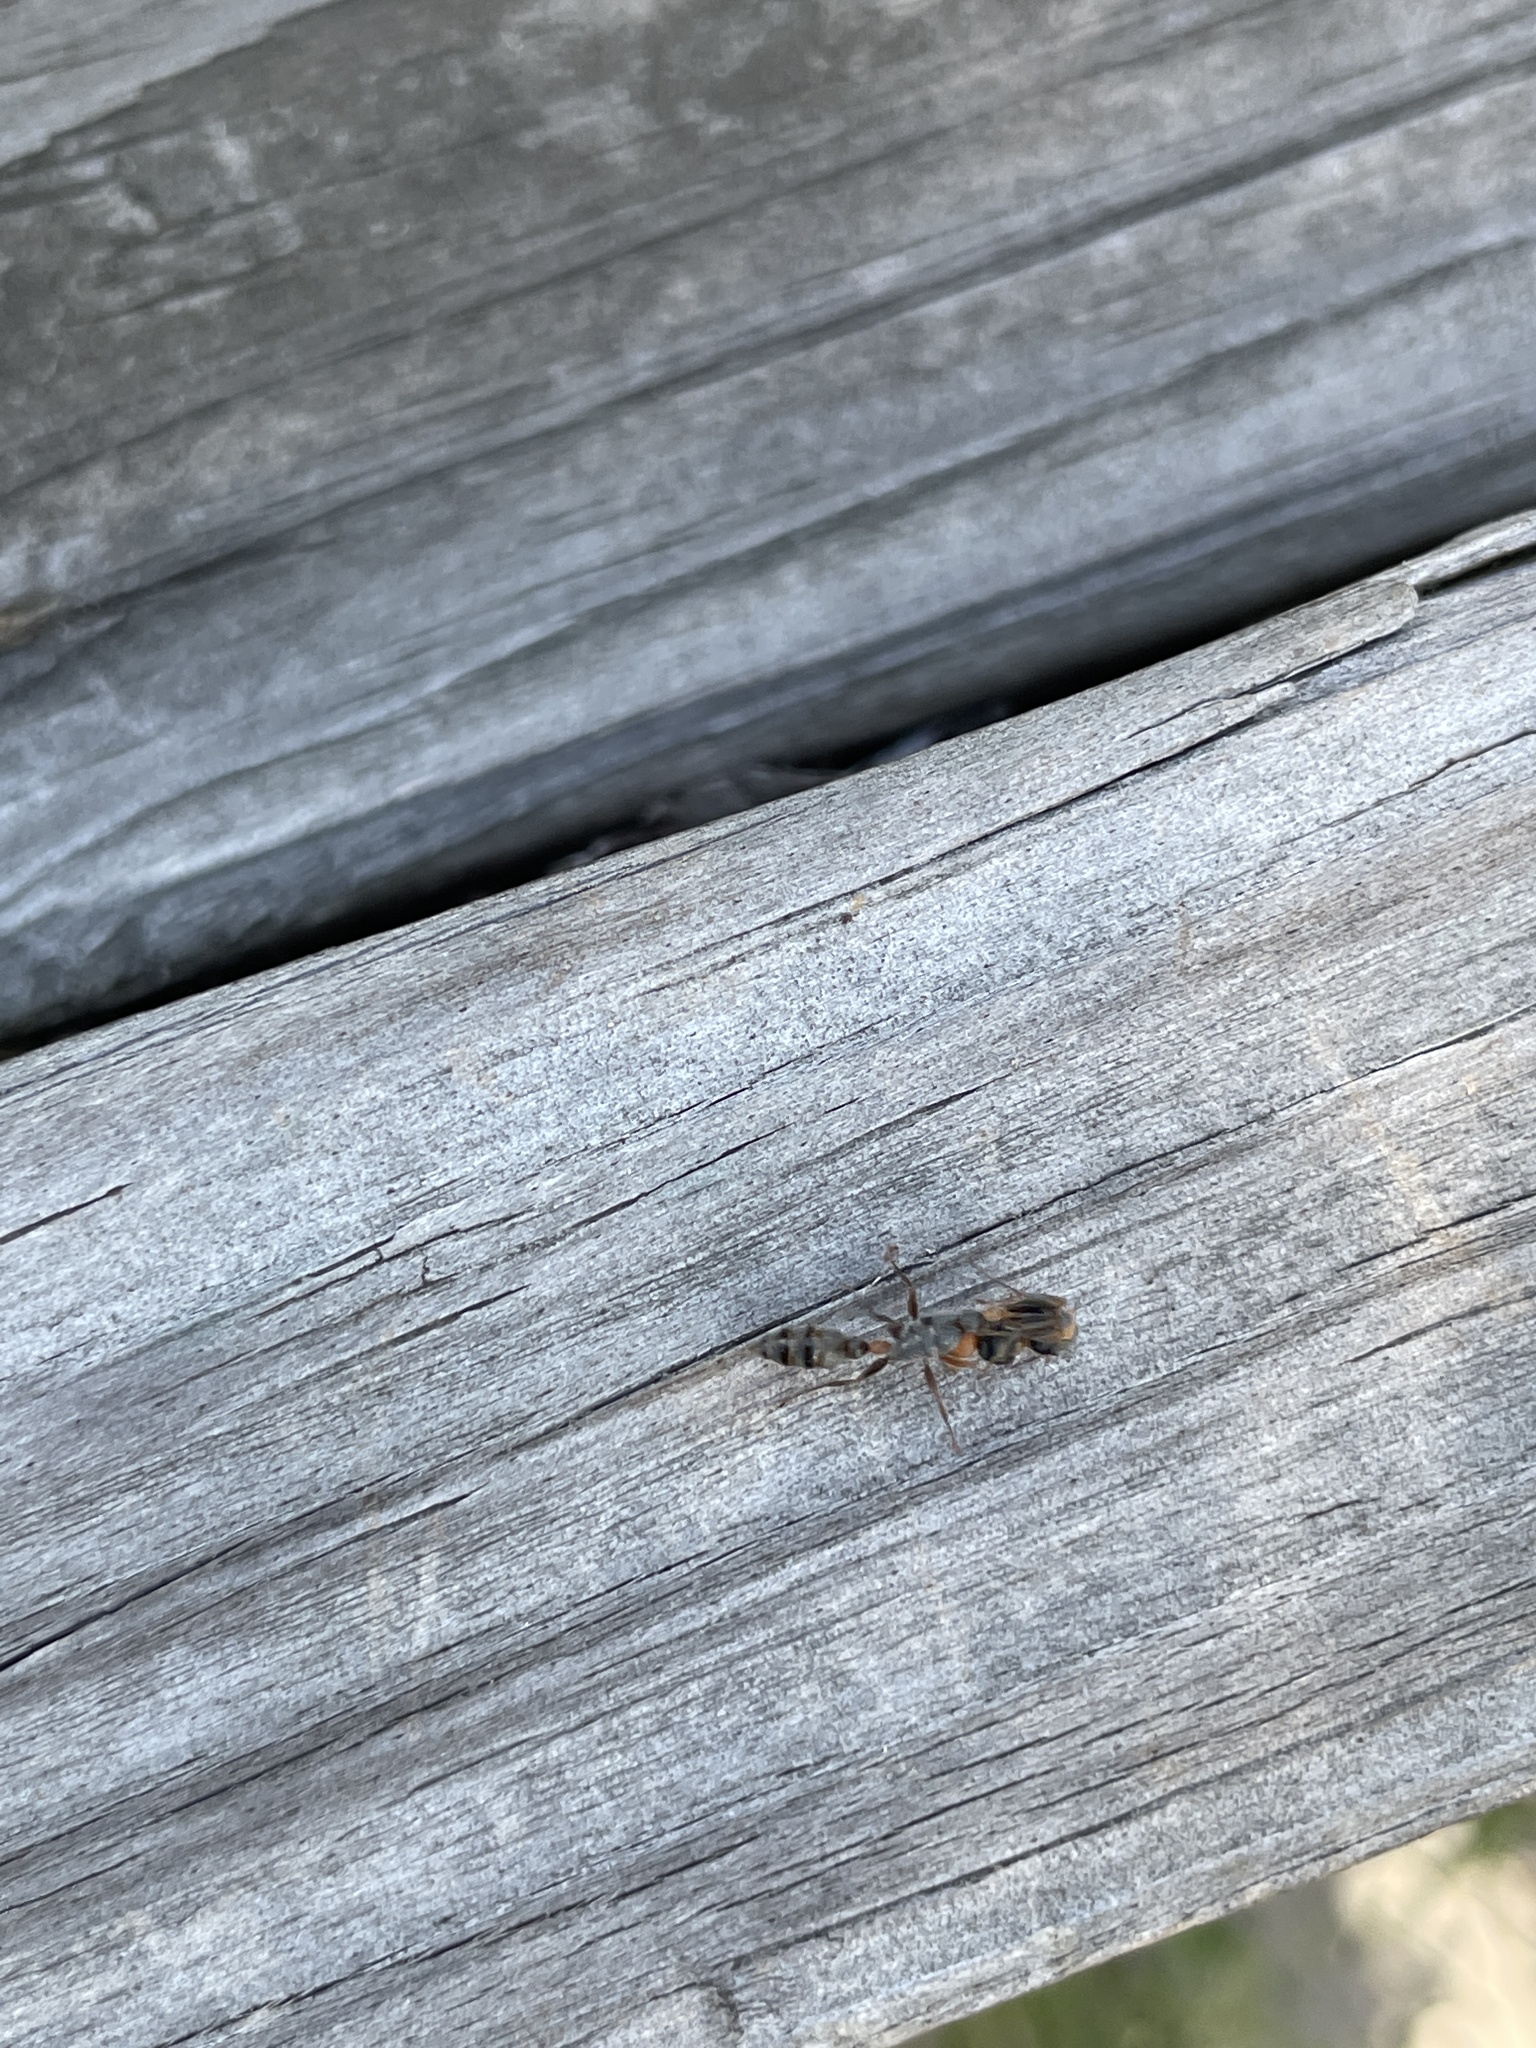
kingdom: Animalia
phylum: Arthropoda
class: Insecta
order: Hymenoptera
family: Formicidae
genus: Pseudomyrmex
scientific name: Pseudomyrmex gracilis
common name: Graceful twig ant
